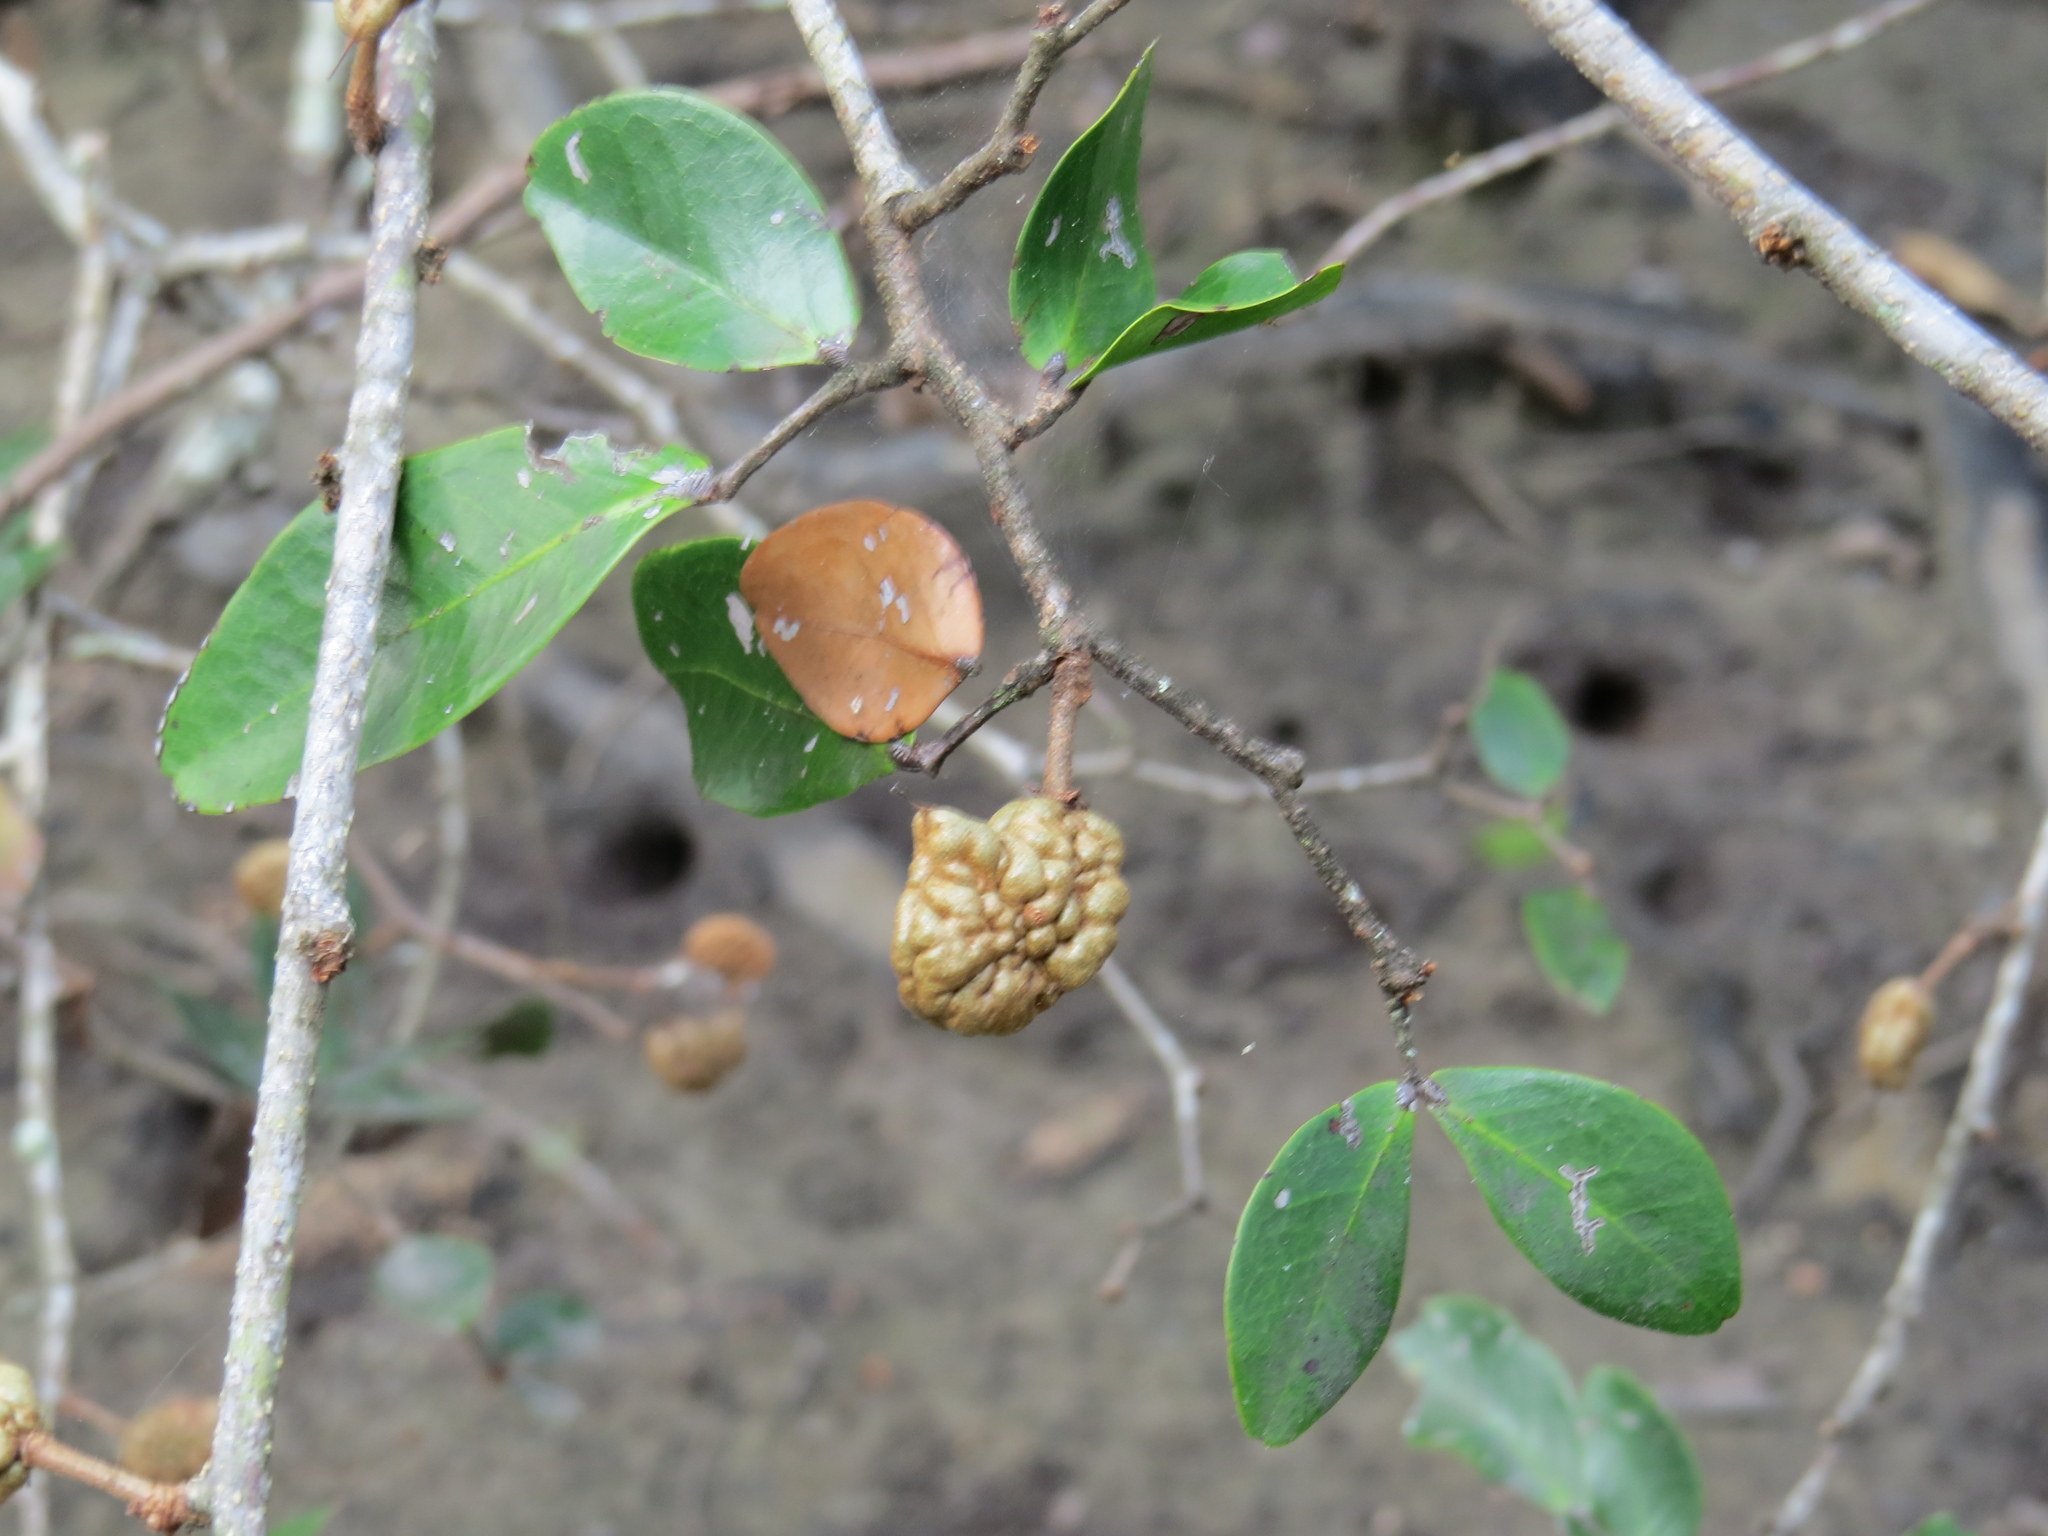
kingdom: Plantae
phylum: Tracheophyta
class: Magnoliopsida
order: Fabales
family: Fabaceae
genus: Cynometra
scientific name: Cynometra iripa
